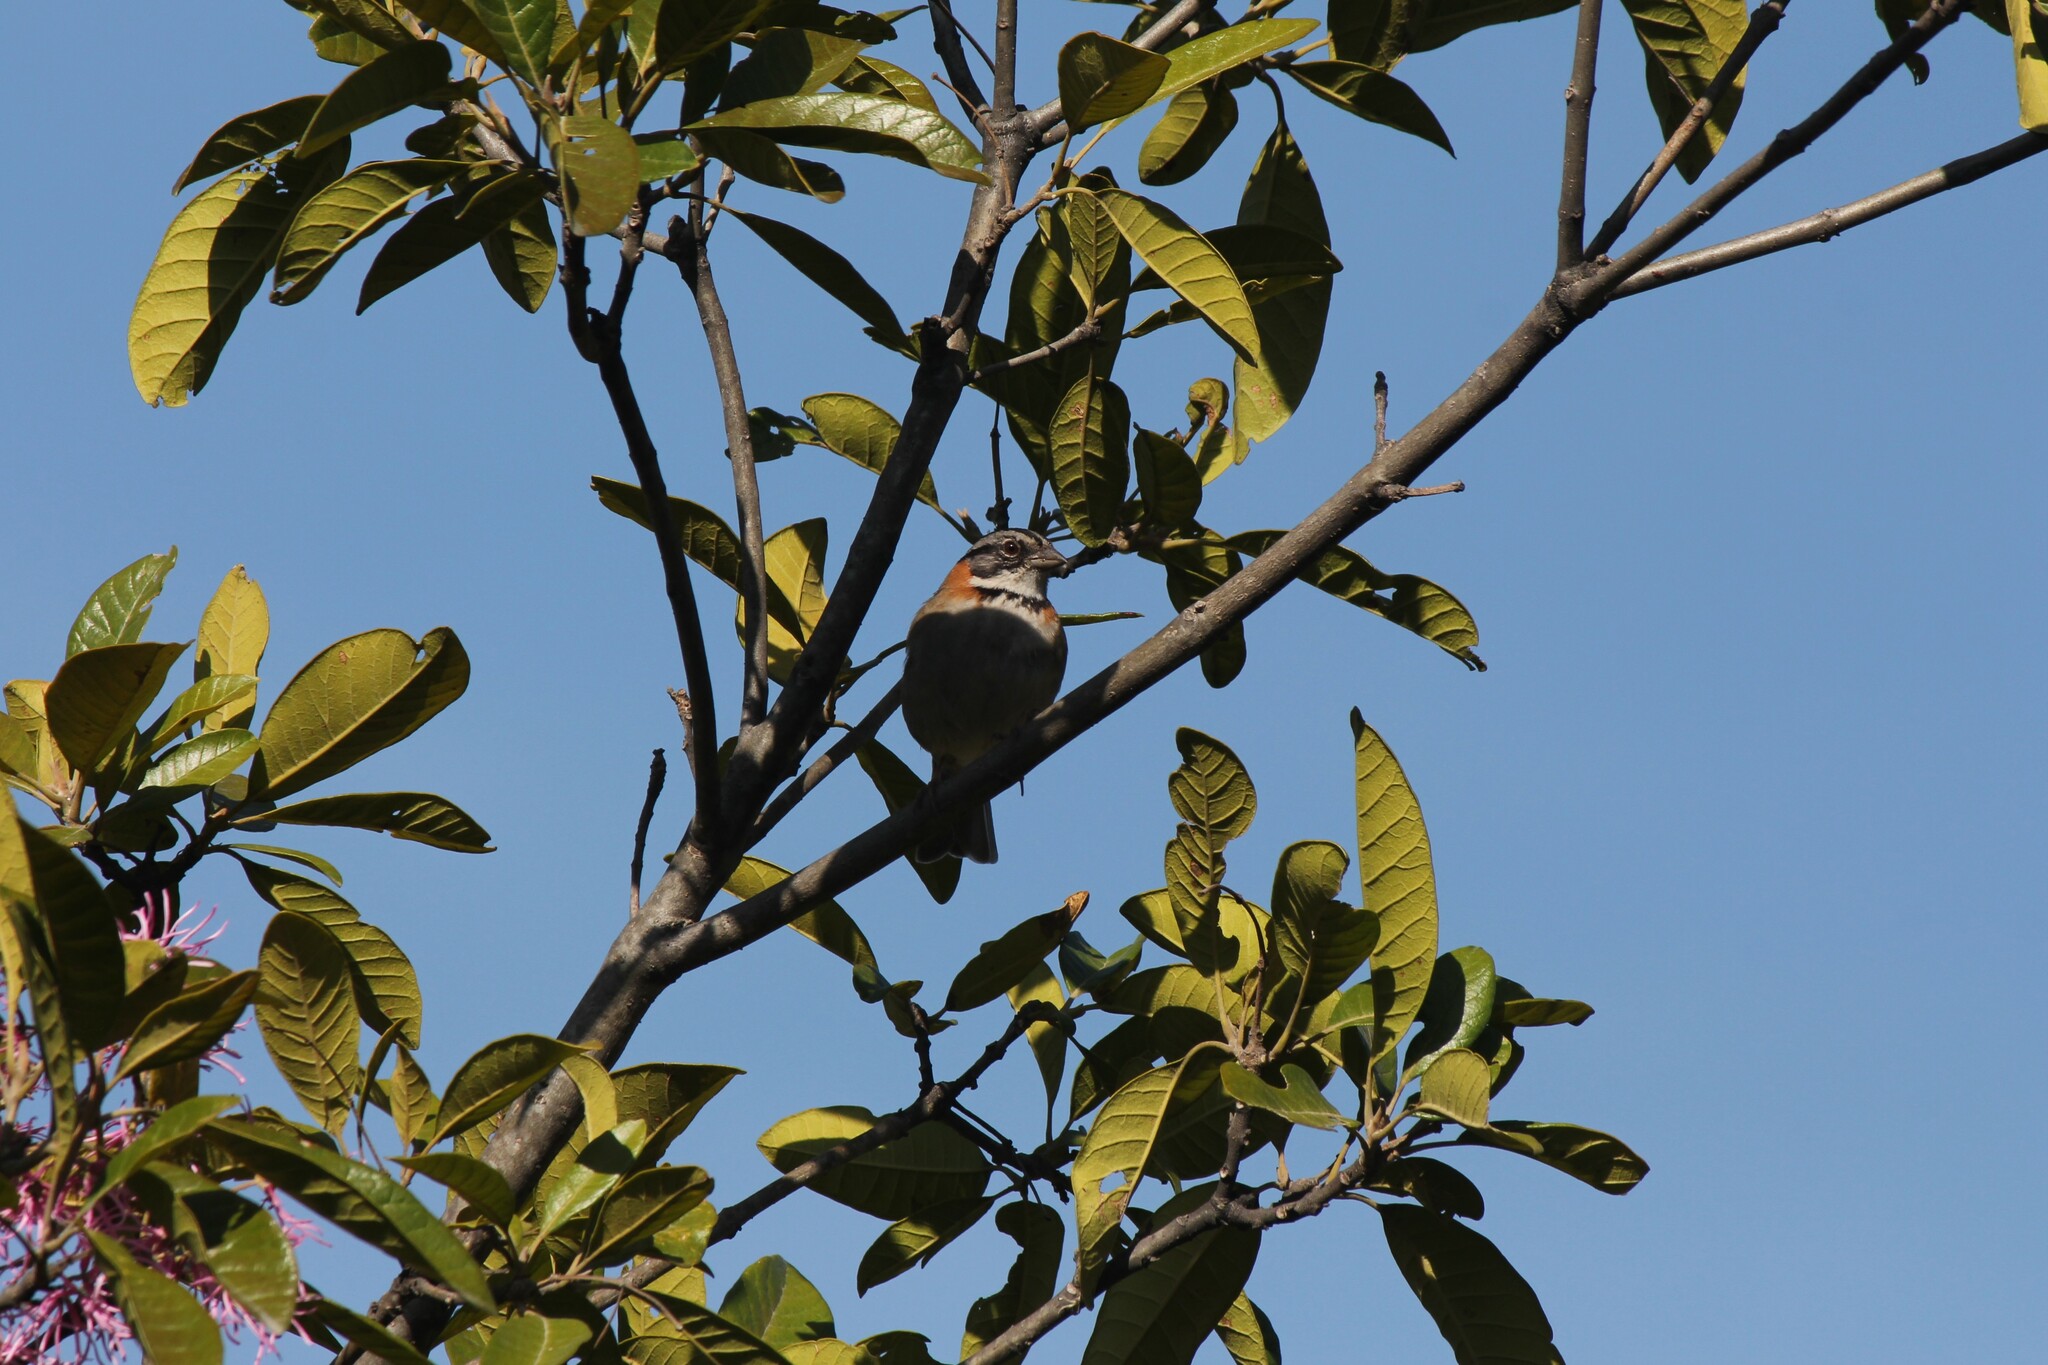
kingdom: Animalia
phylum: Chordata
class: Aves
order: Passeriformes
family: Passerellidae
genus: Zonotrichia
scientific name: Zonotrichia capensis
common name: Rufous-collared sparrow
